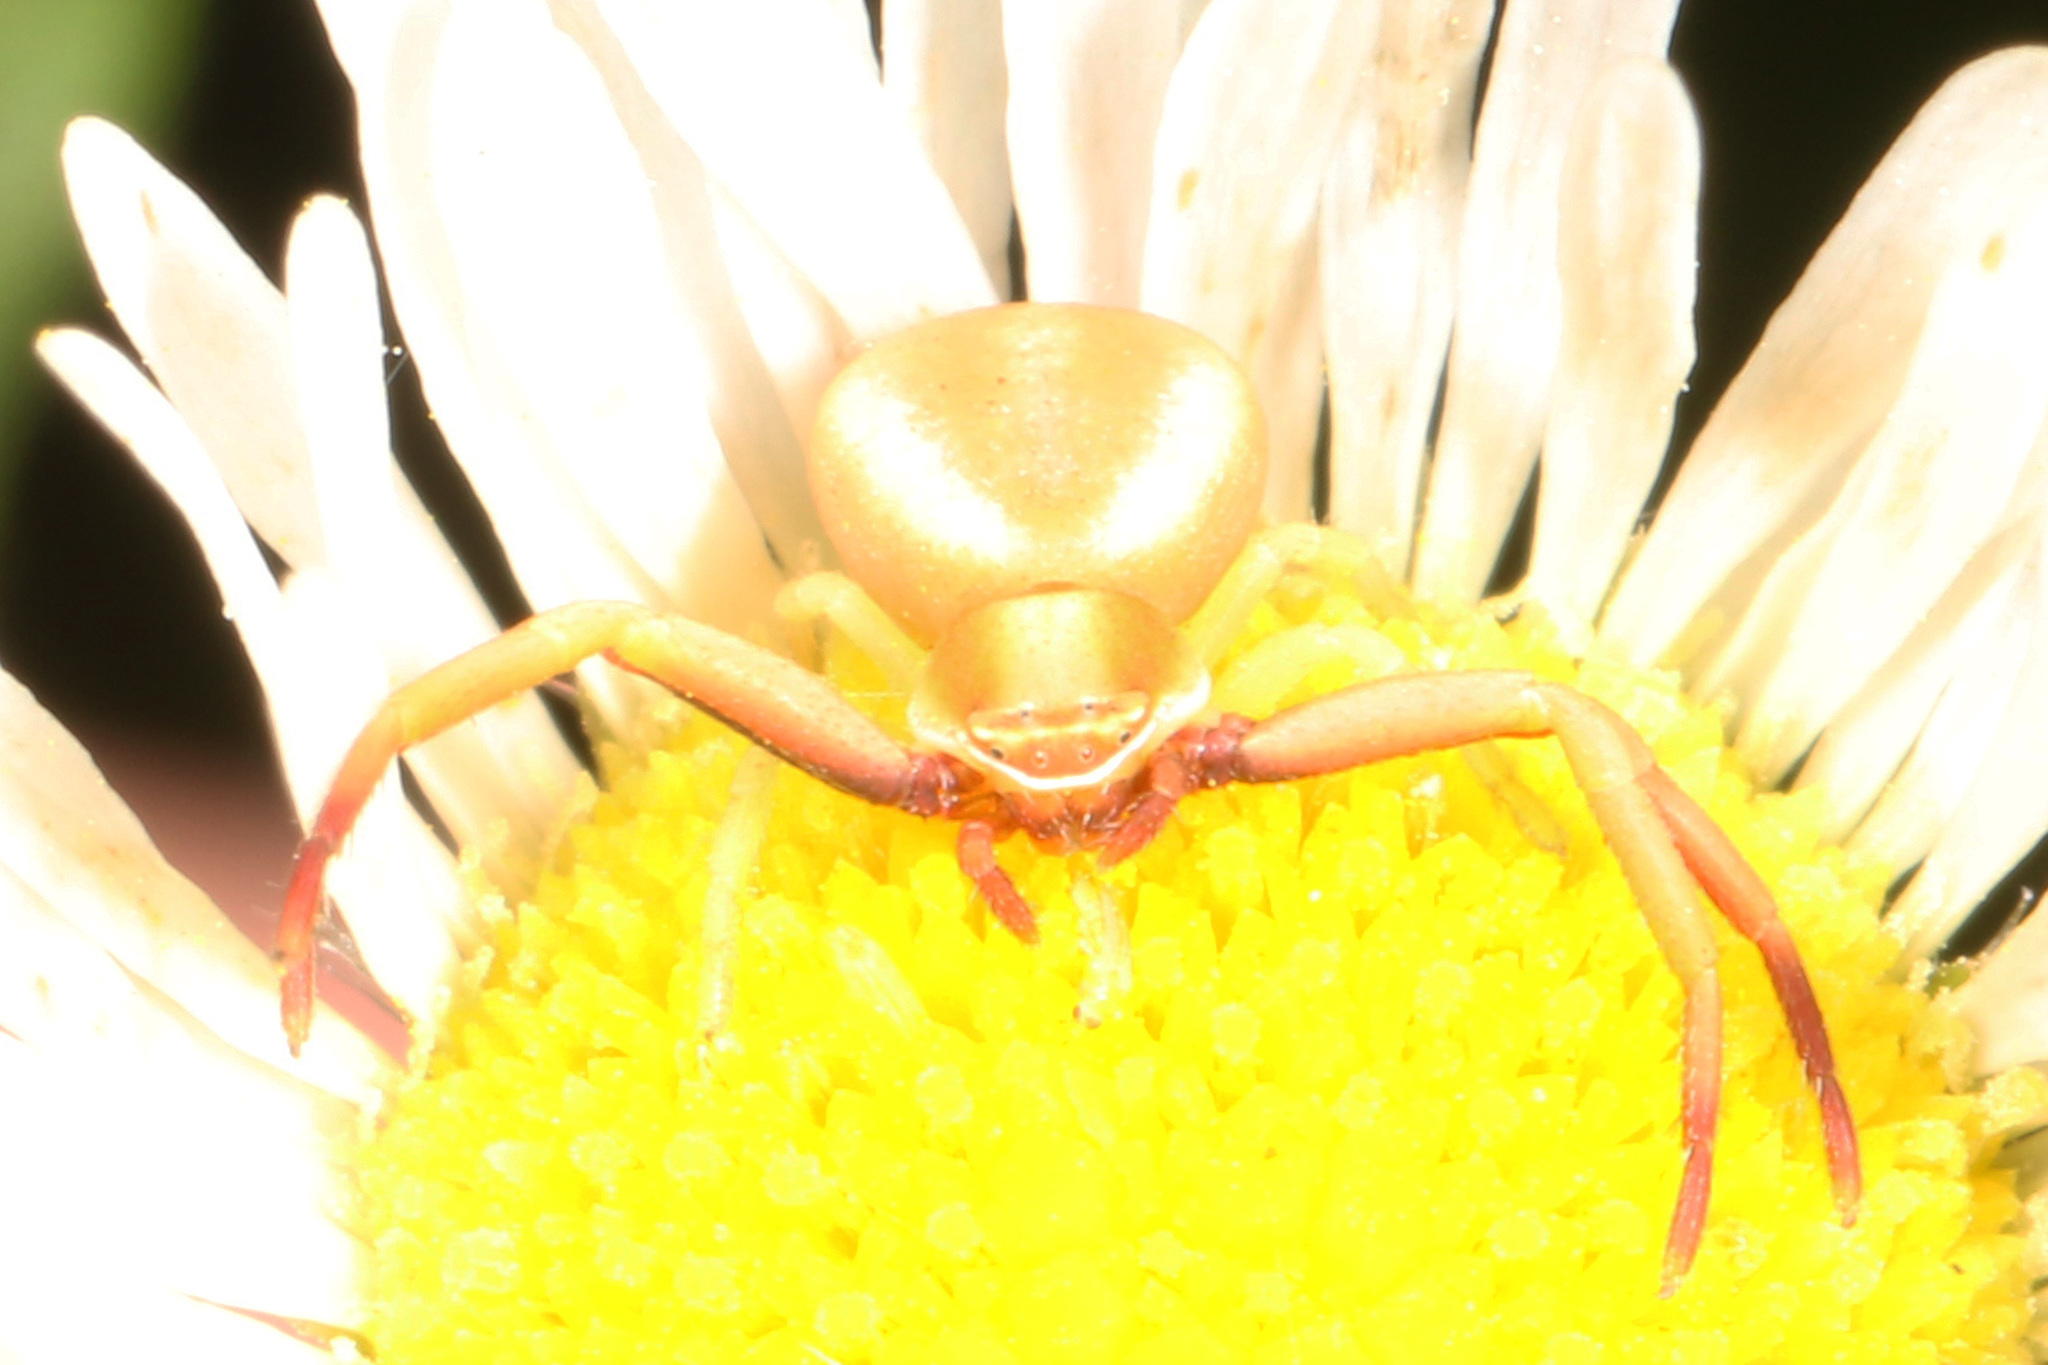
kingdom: Animalia
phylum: Arthropoda
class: Arachnida
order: Araneae
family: Thomisidae
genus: Misumenoides
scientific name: Misumenoides formosipes
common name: White-banded crab spider
